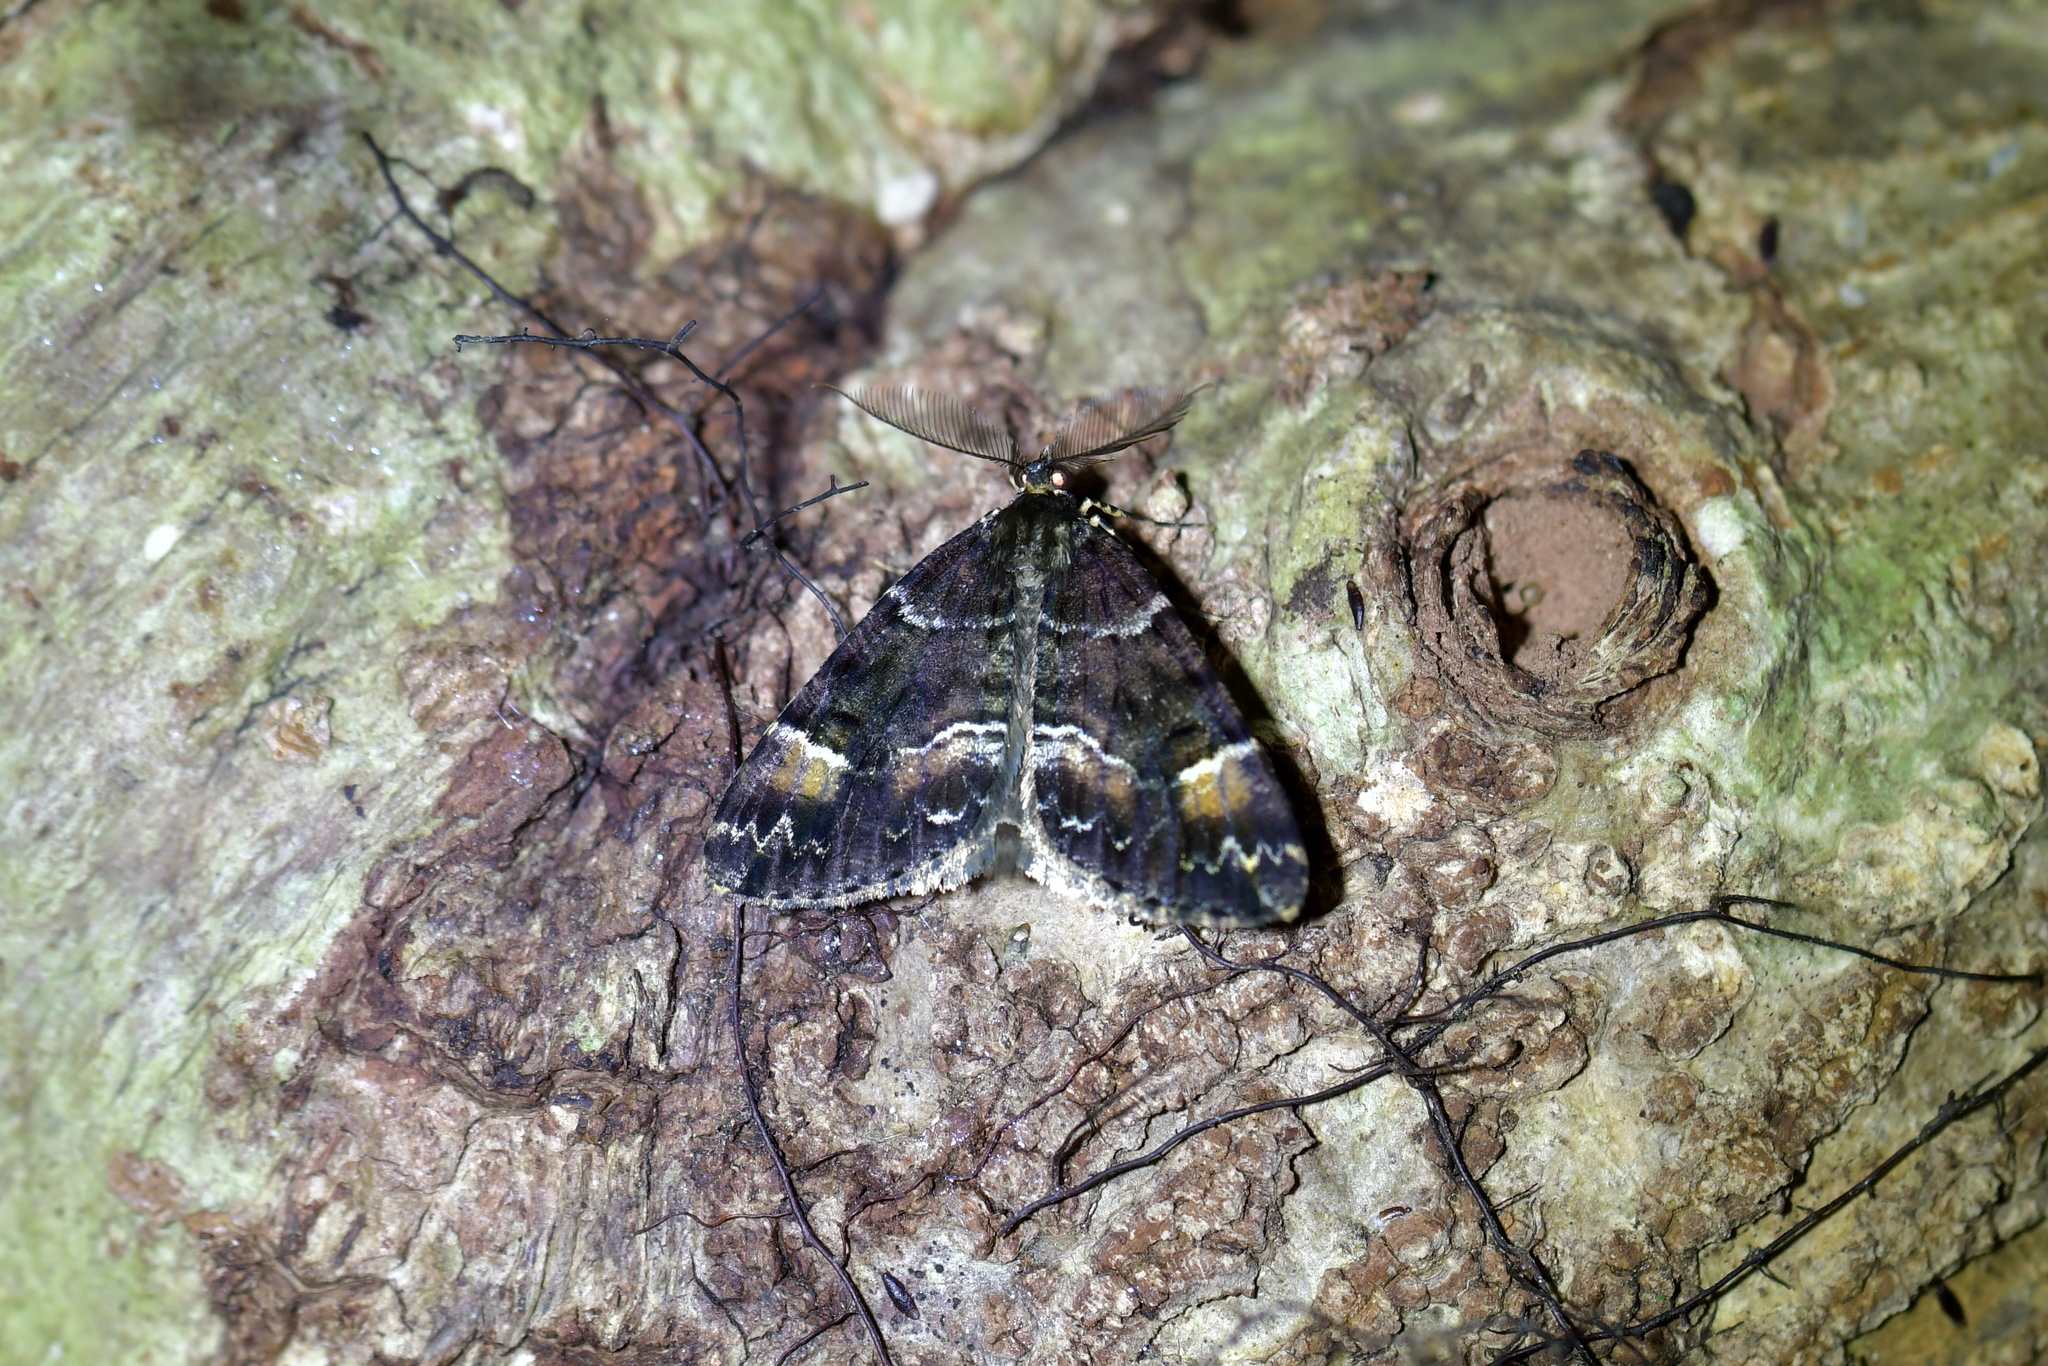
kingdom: Animalia
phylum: Arthropoda
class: Insecta
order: Lepidoptera
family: Geometridae
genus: Pseudocoremia
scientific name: Pseudocoremia productata
